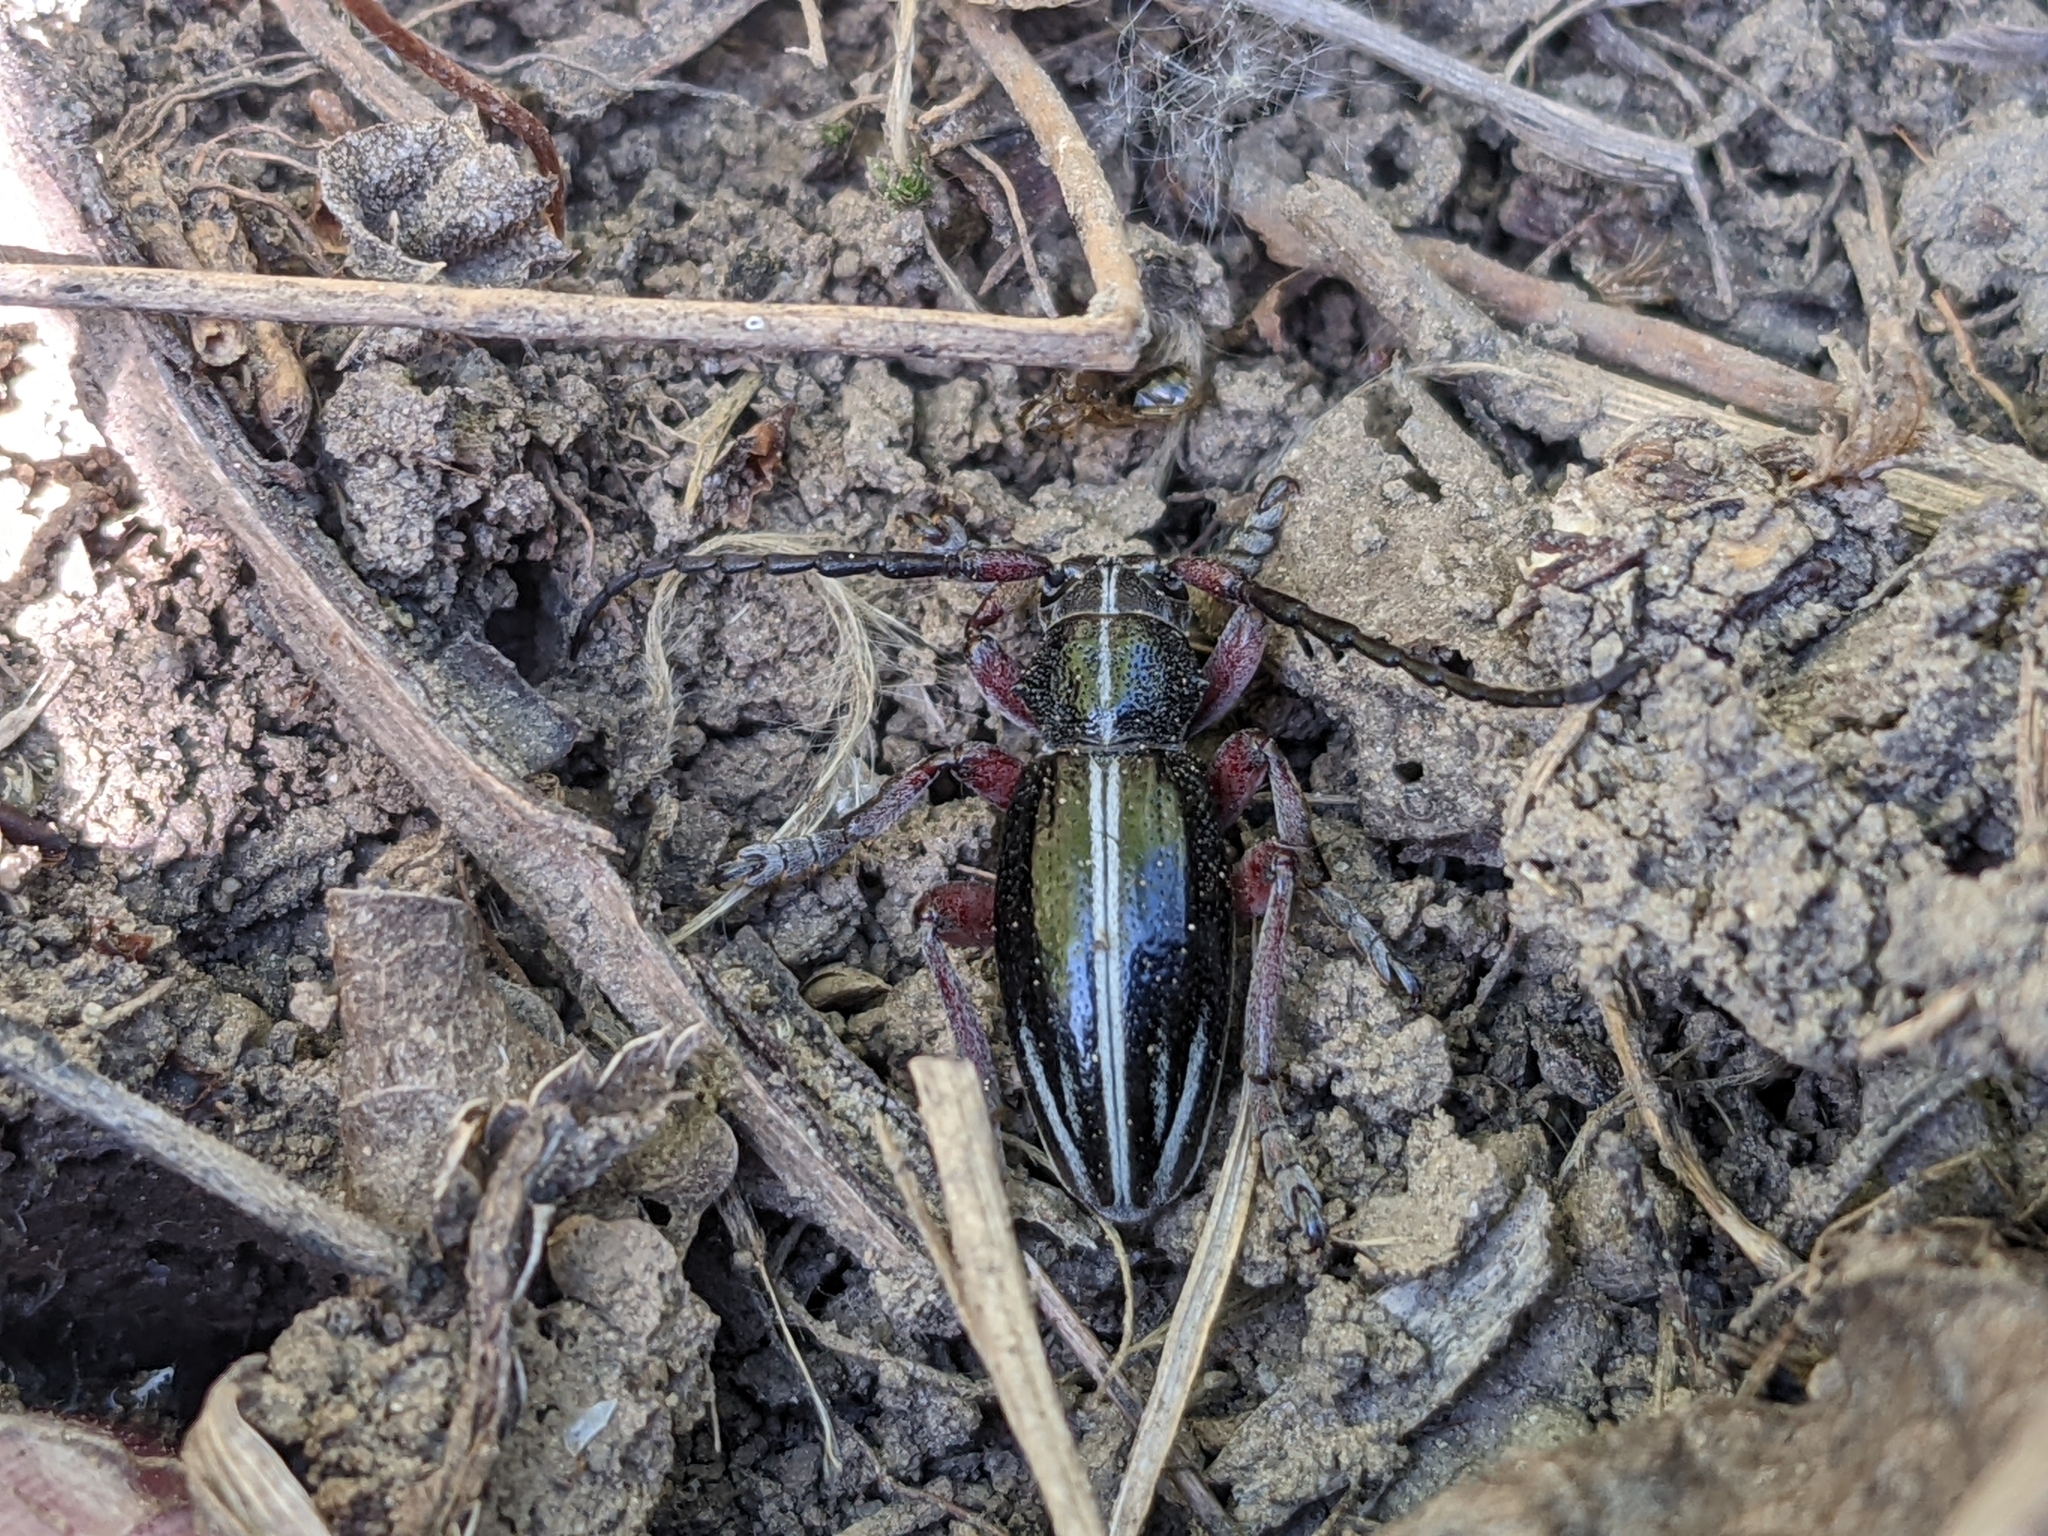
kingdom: Animalia
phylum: Arthropoda
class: Insecta
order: Coleoptera
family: Cerambycidae
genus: Dorcadion
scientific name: Dorcadion pedestre
